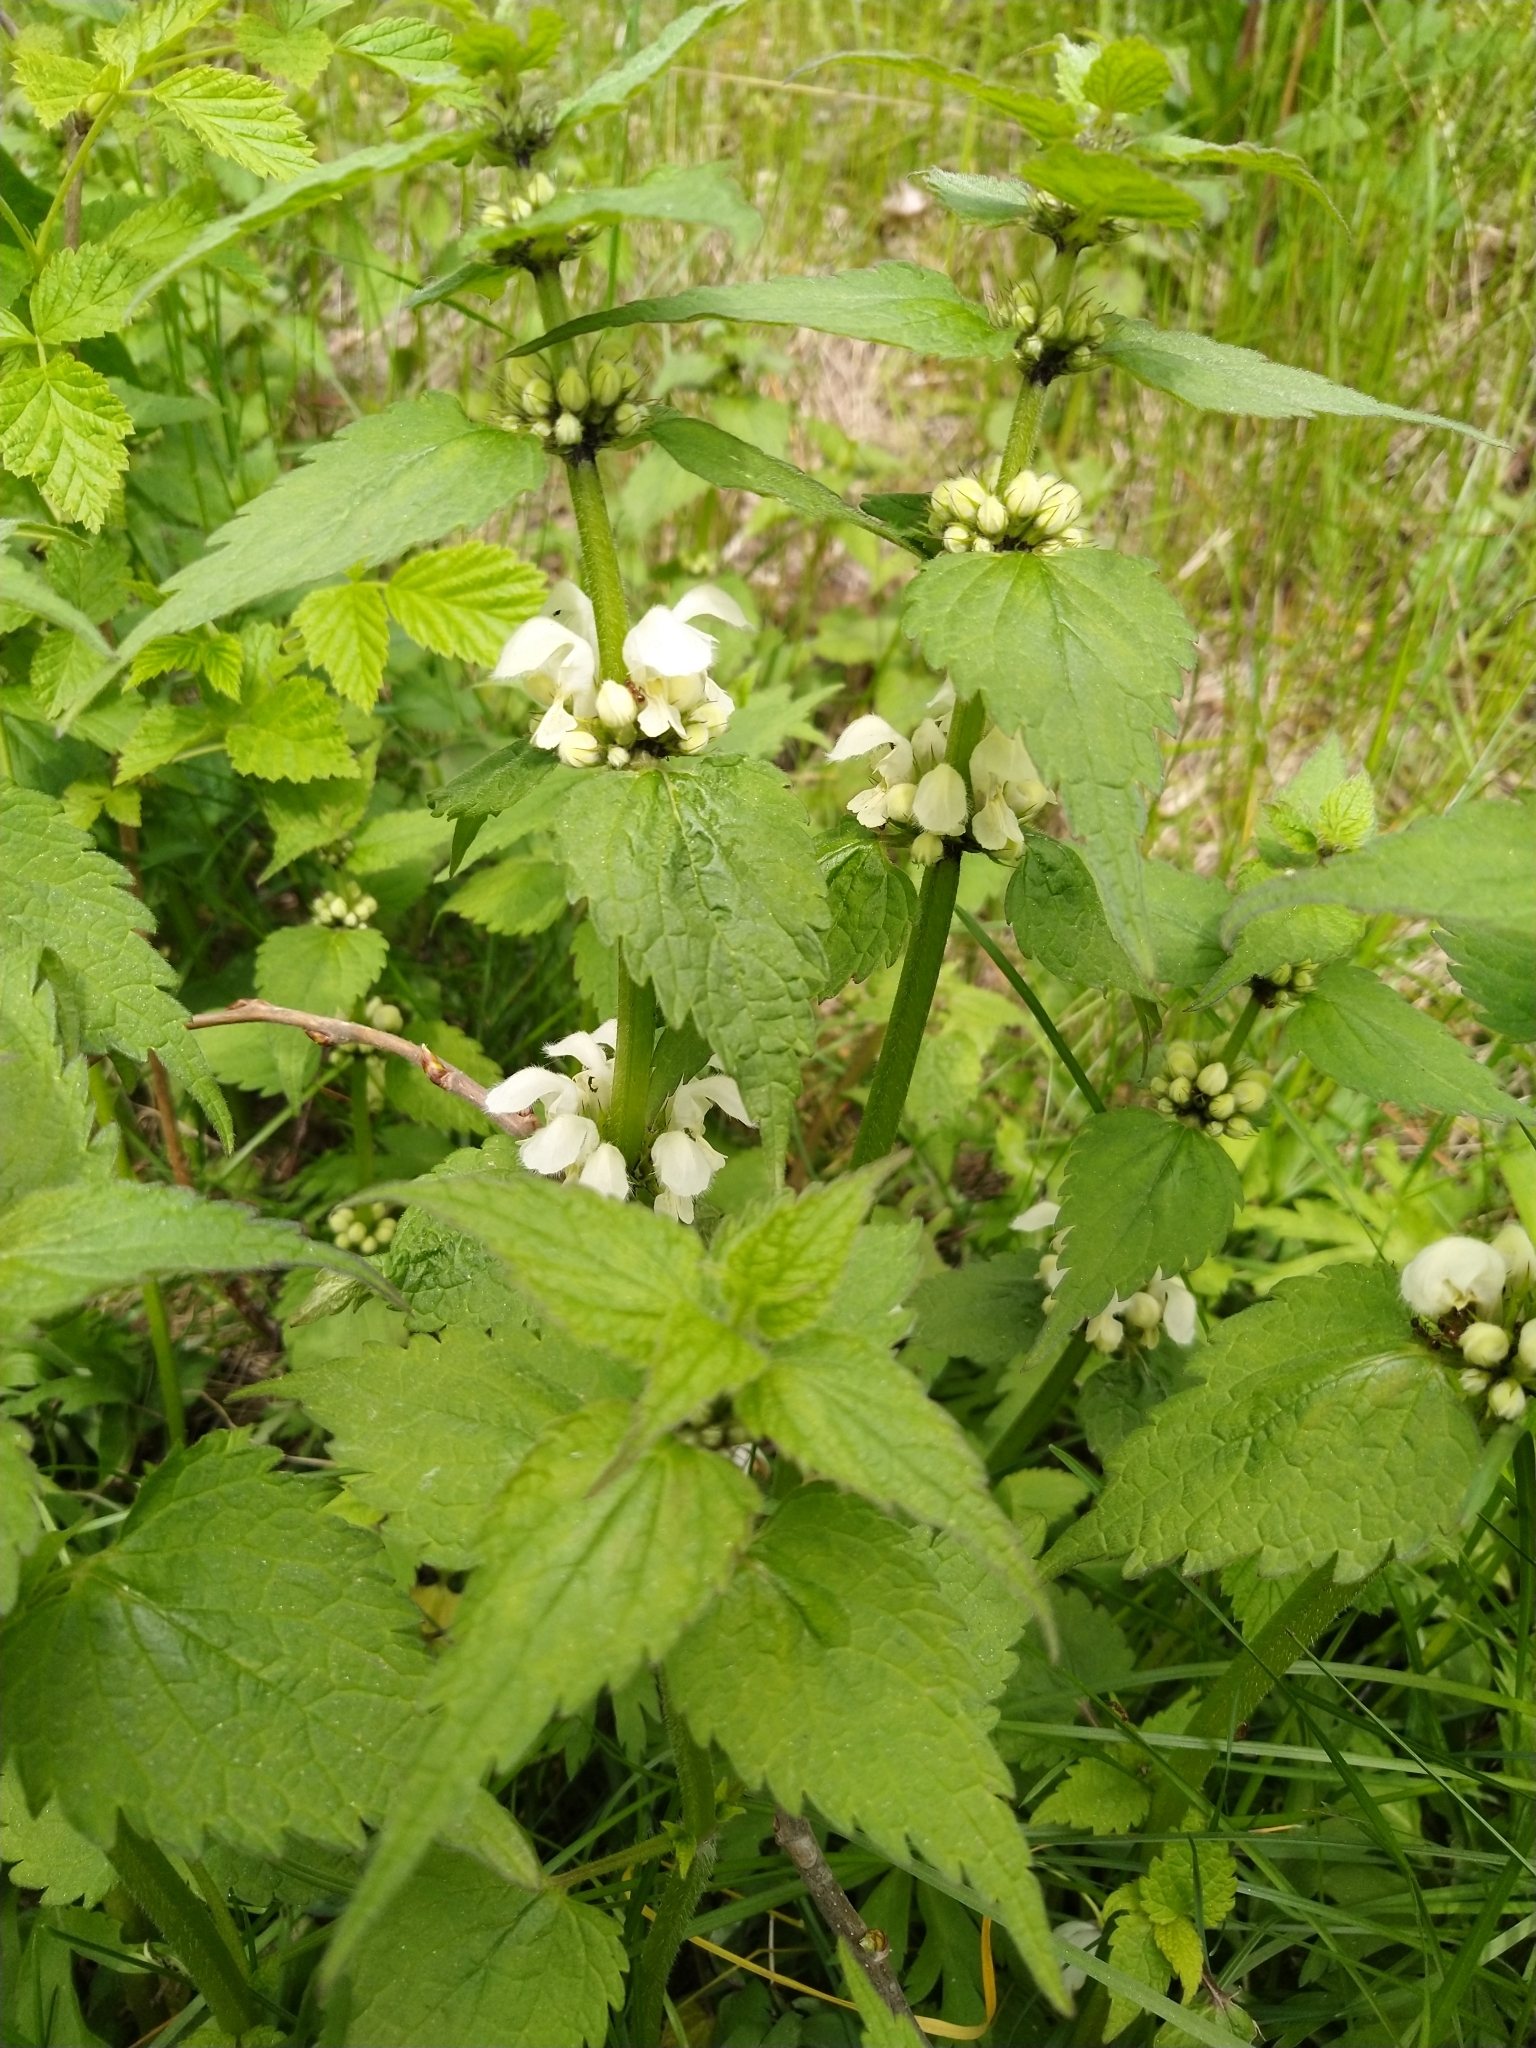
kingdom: Plantae
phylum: Tracheophyta
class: Magnoliopsida
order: Lamiales
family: Lamiaceae
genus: Lamium
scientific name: Lamium album
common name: White dead-nettle
